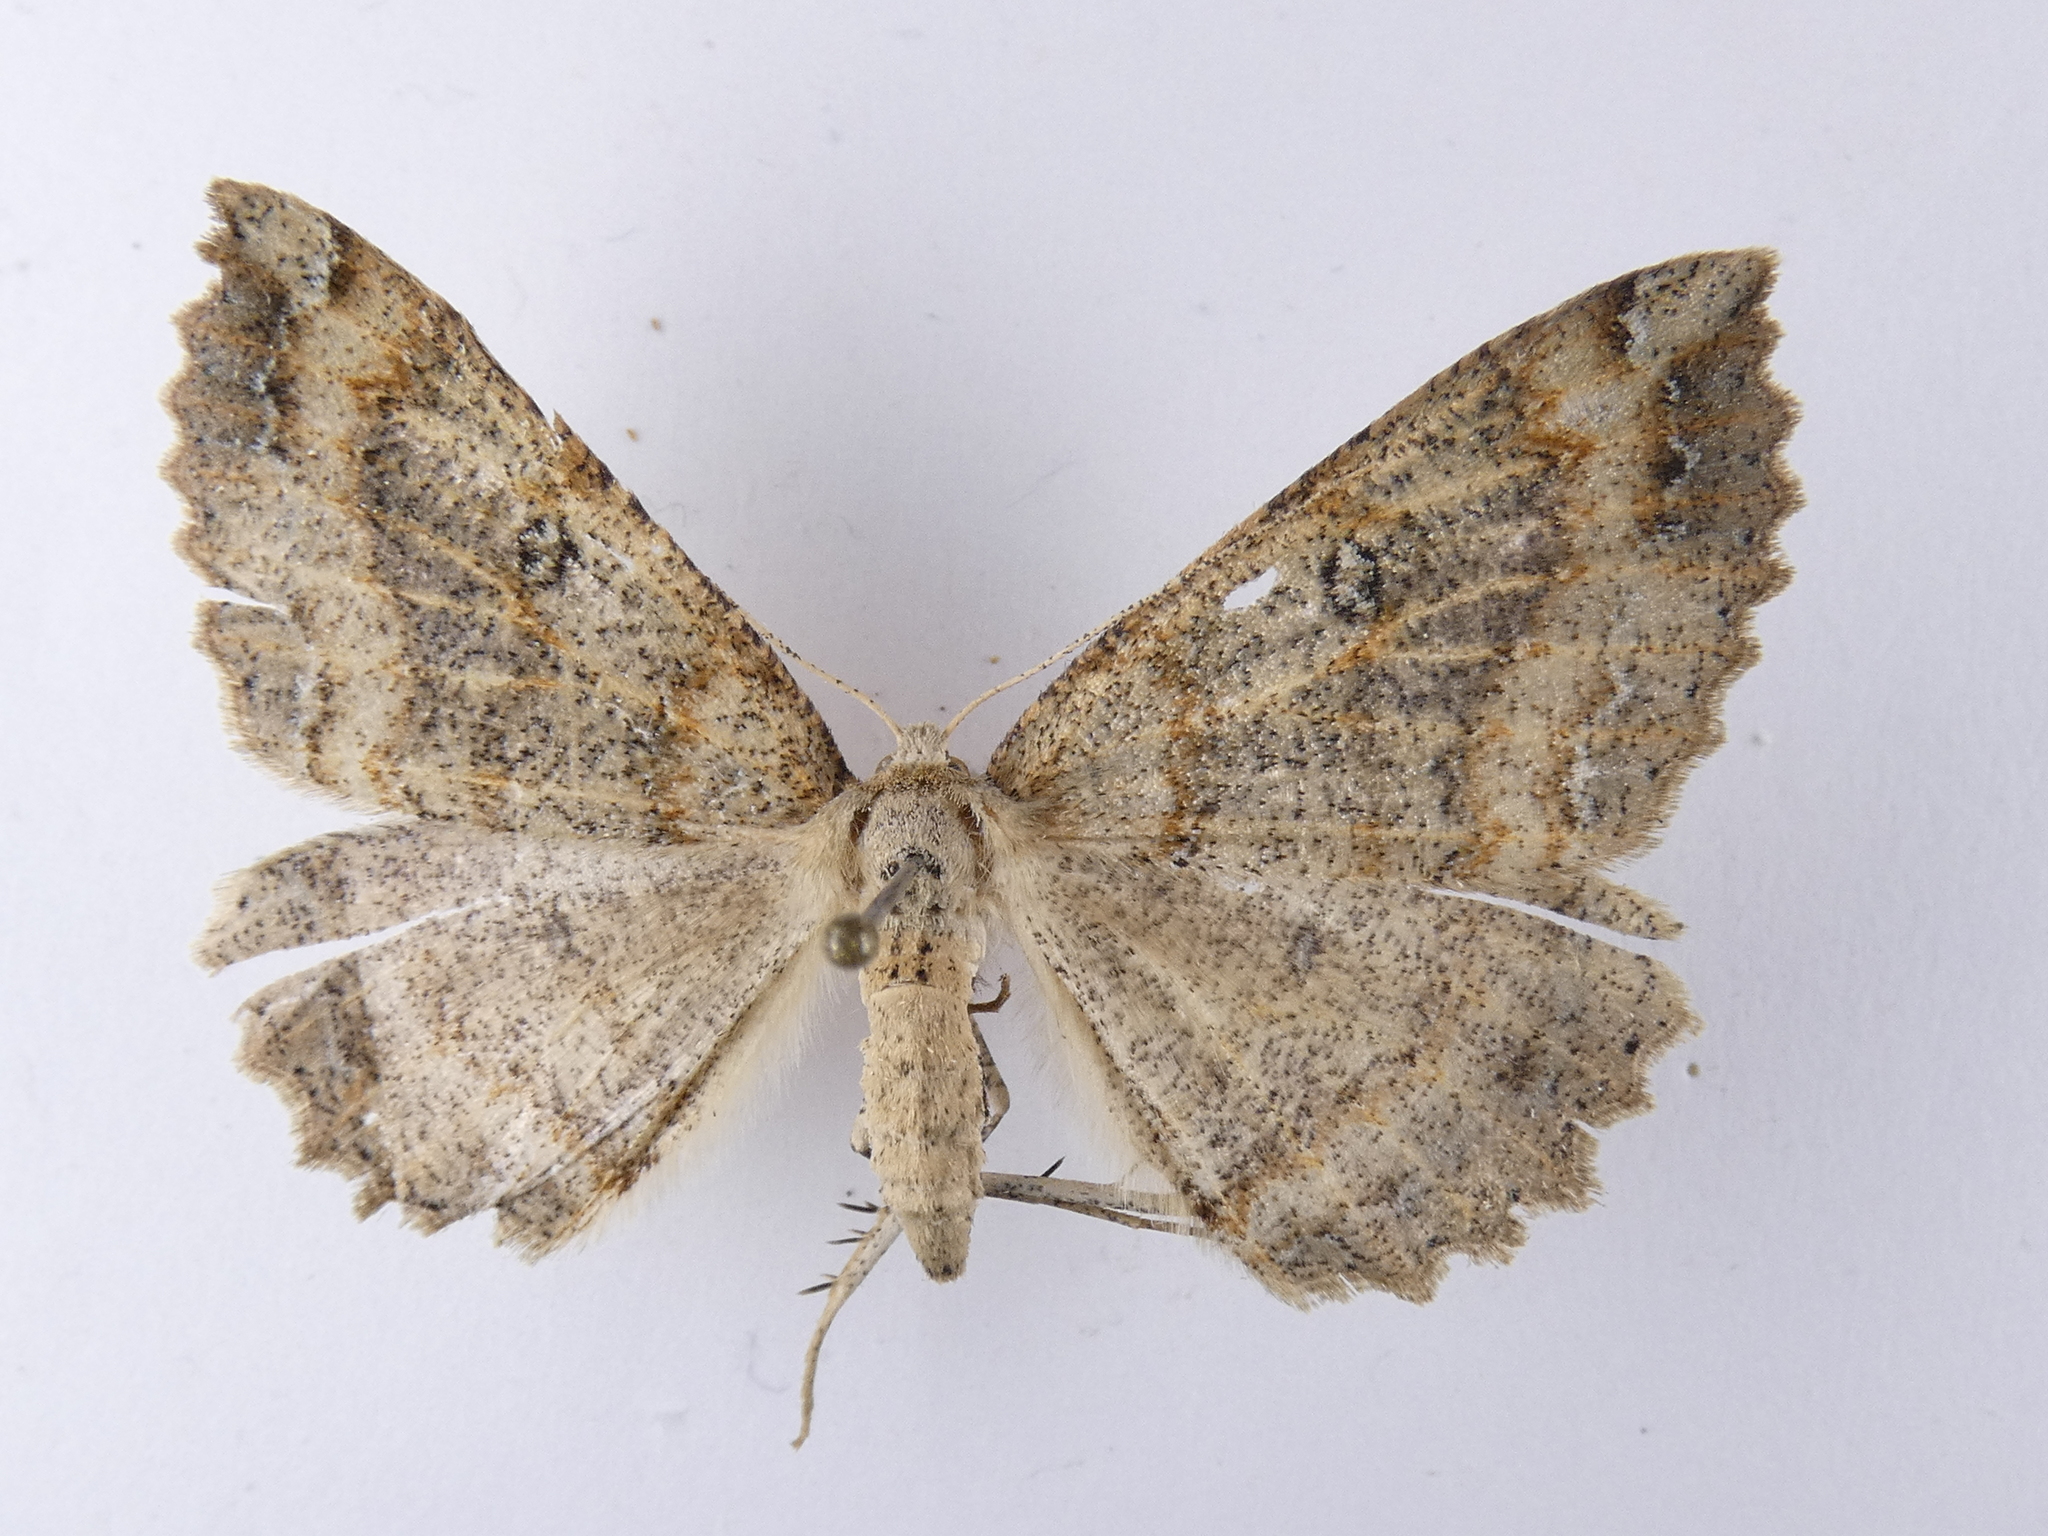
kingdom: Animalia
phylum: Arthropoda
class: Insecta
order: Lepidoptera
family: Geometridae
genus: Cleora
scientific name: Cleora scriptaria
